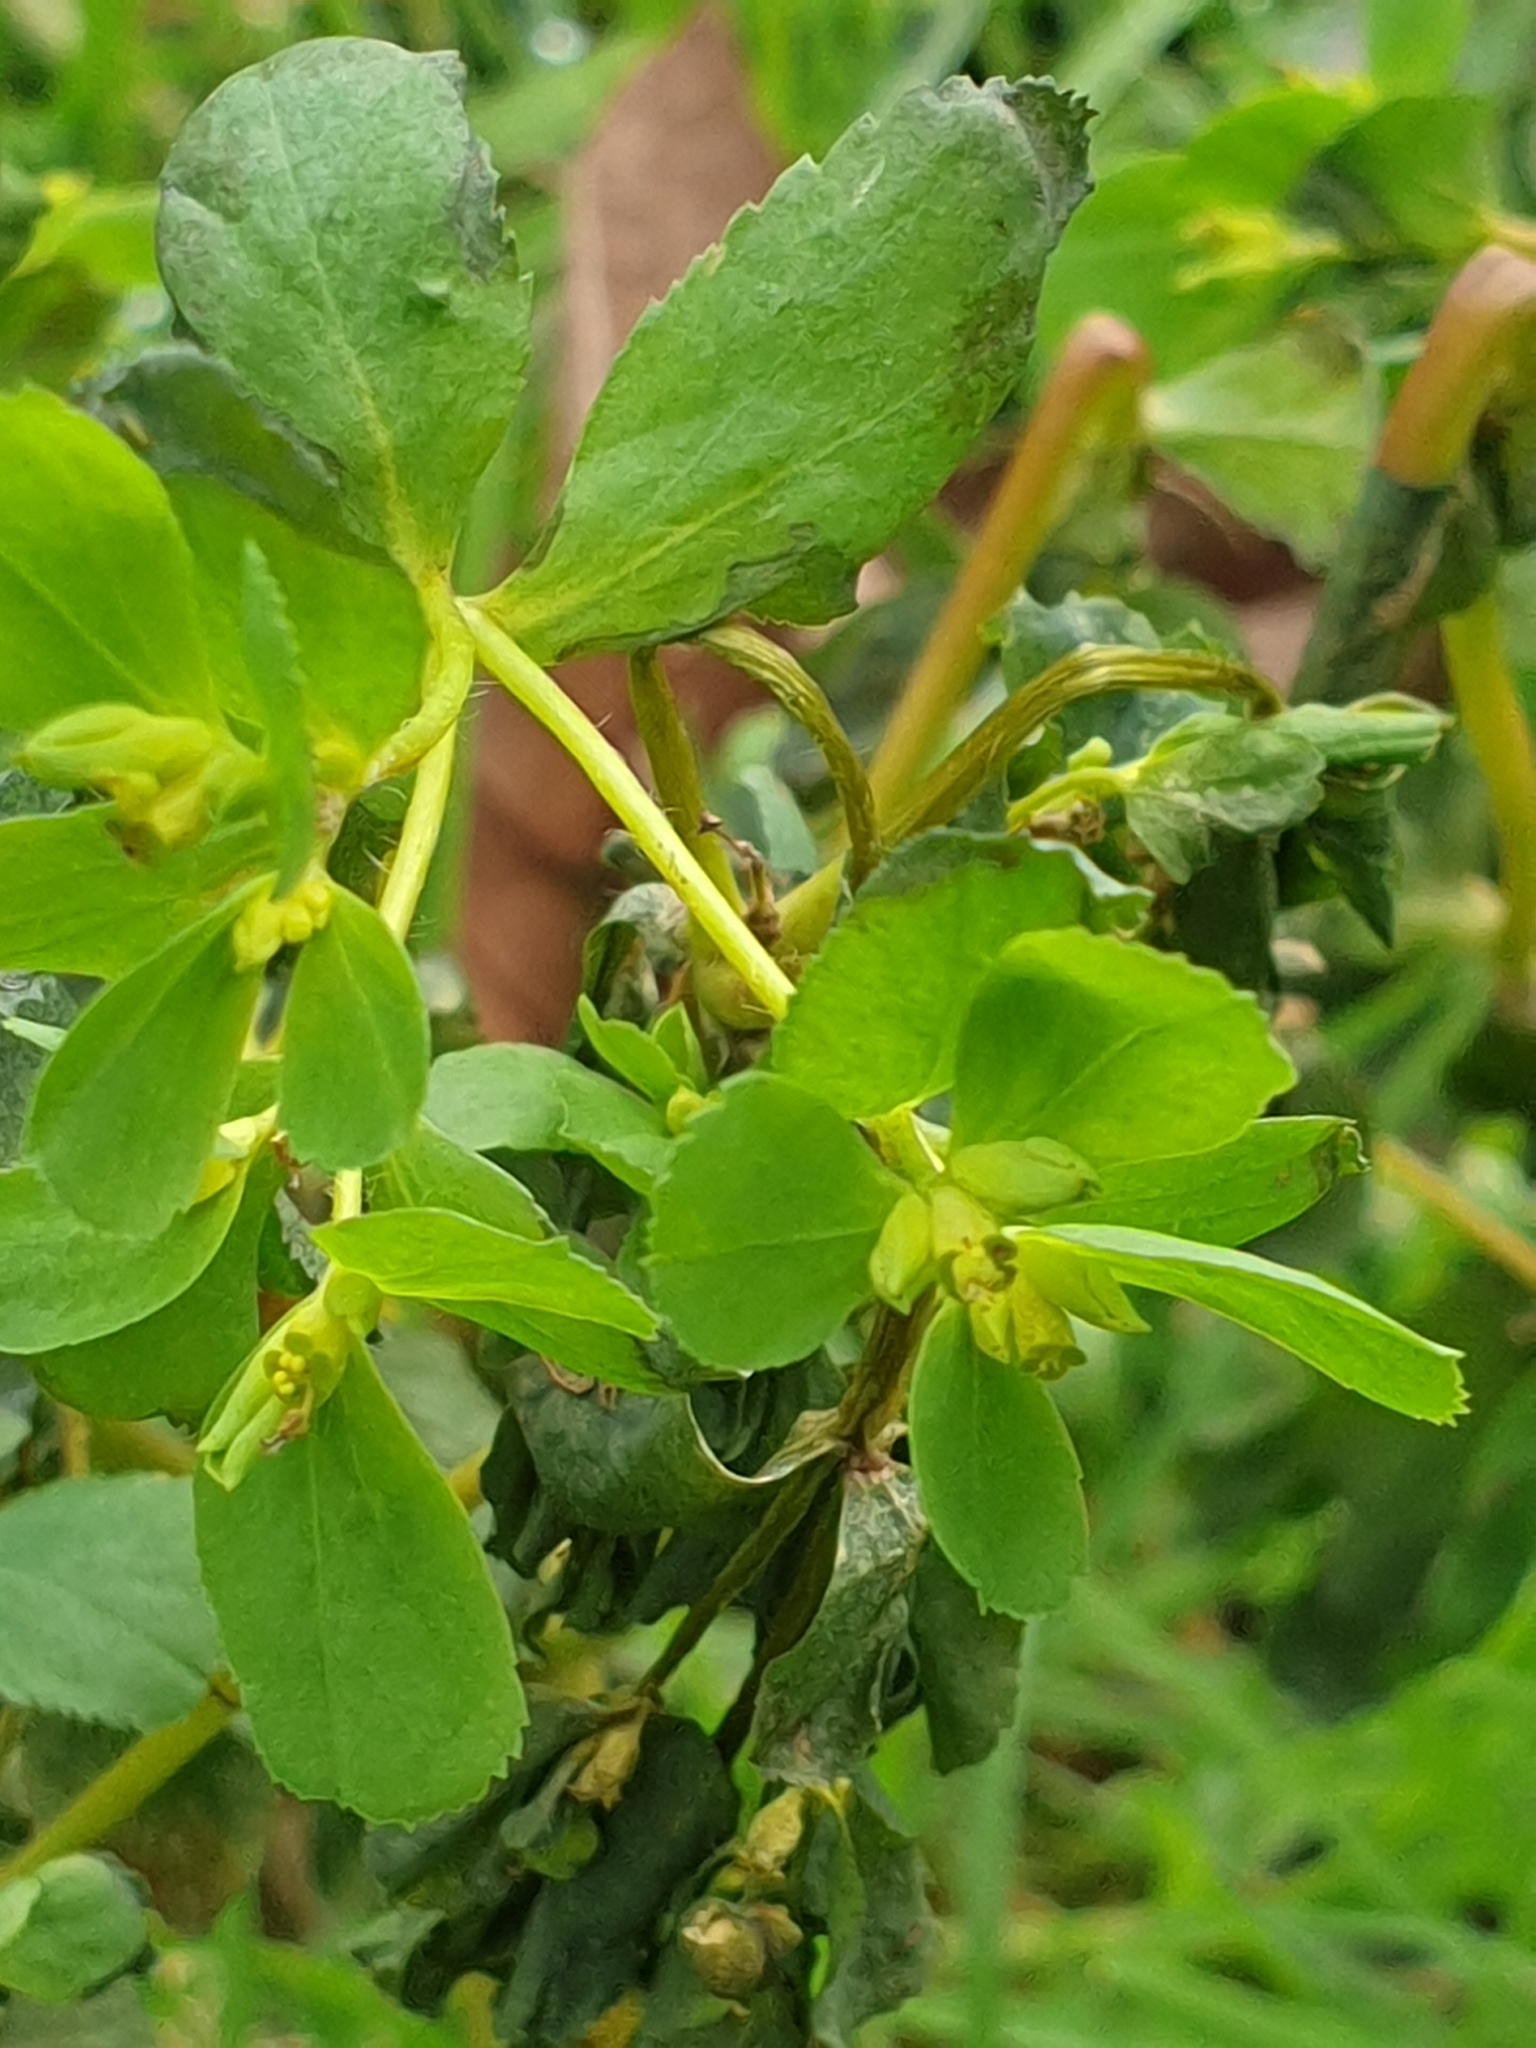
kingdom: Plantae
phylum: Tracheophyta
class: Magnoliopsida
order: Malpighiales
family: Euphorbiaceae
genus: Euphorbia
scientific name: Euphorbia helioscopia
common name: Sun spurge
